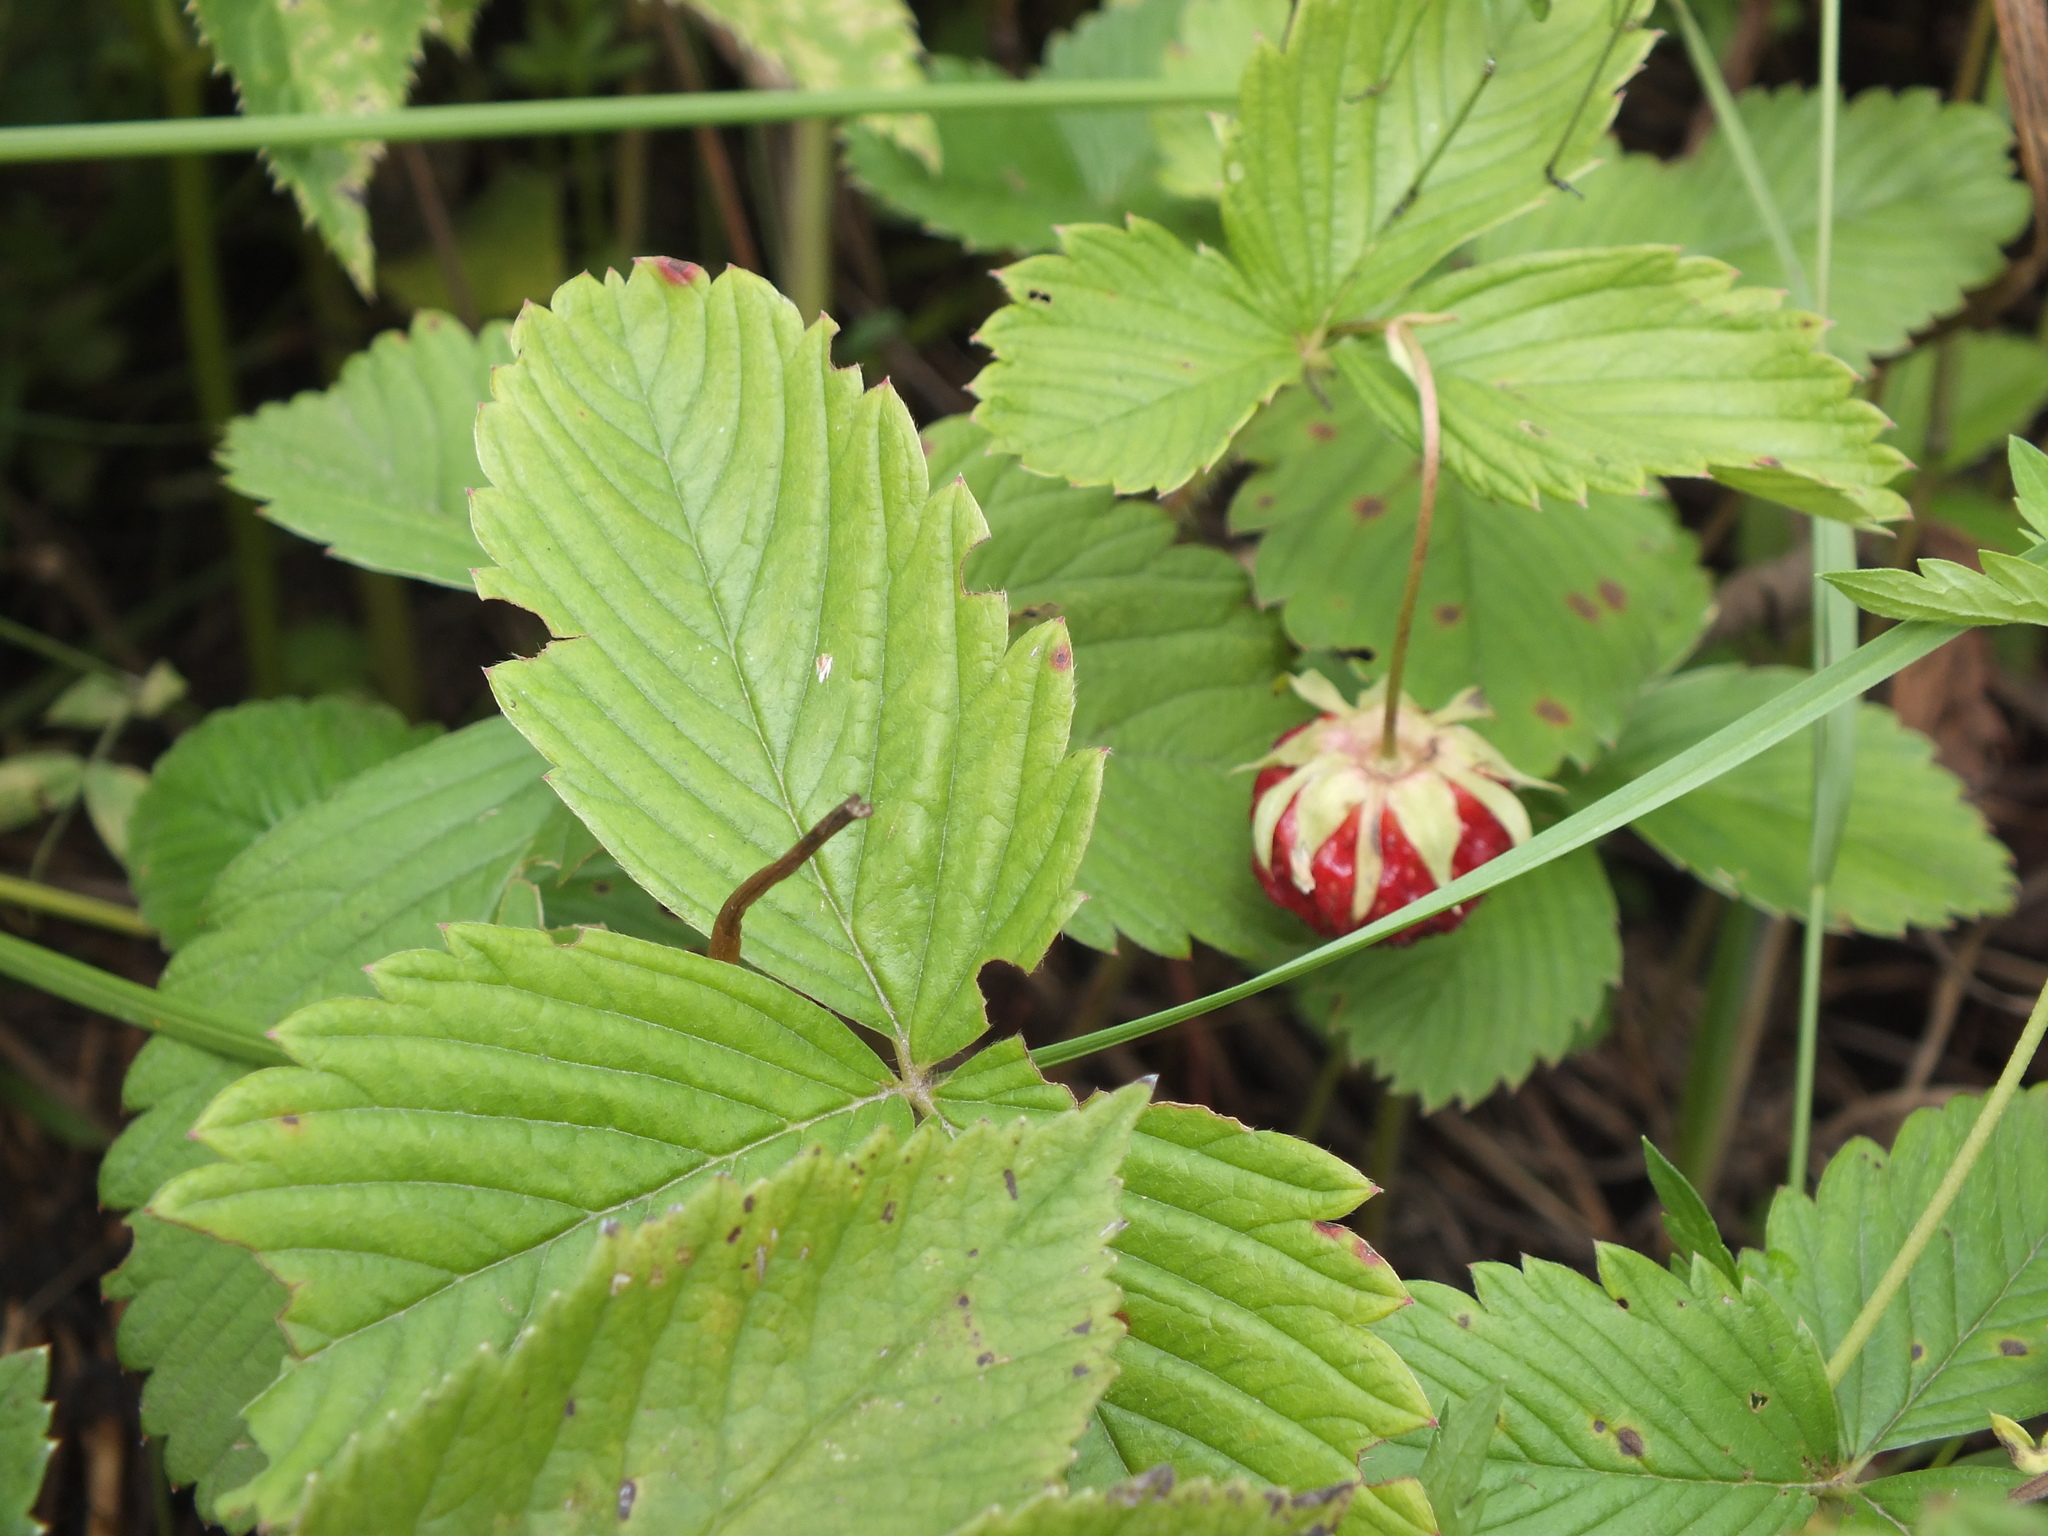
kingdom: Plantae
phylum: Tracheophyta
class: Magnoliopsida
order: Rosales
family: Rosaceae
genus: Fragaria
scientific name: Fragaria viridis
